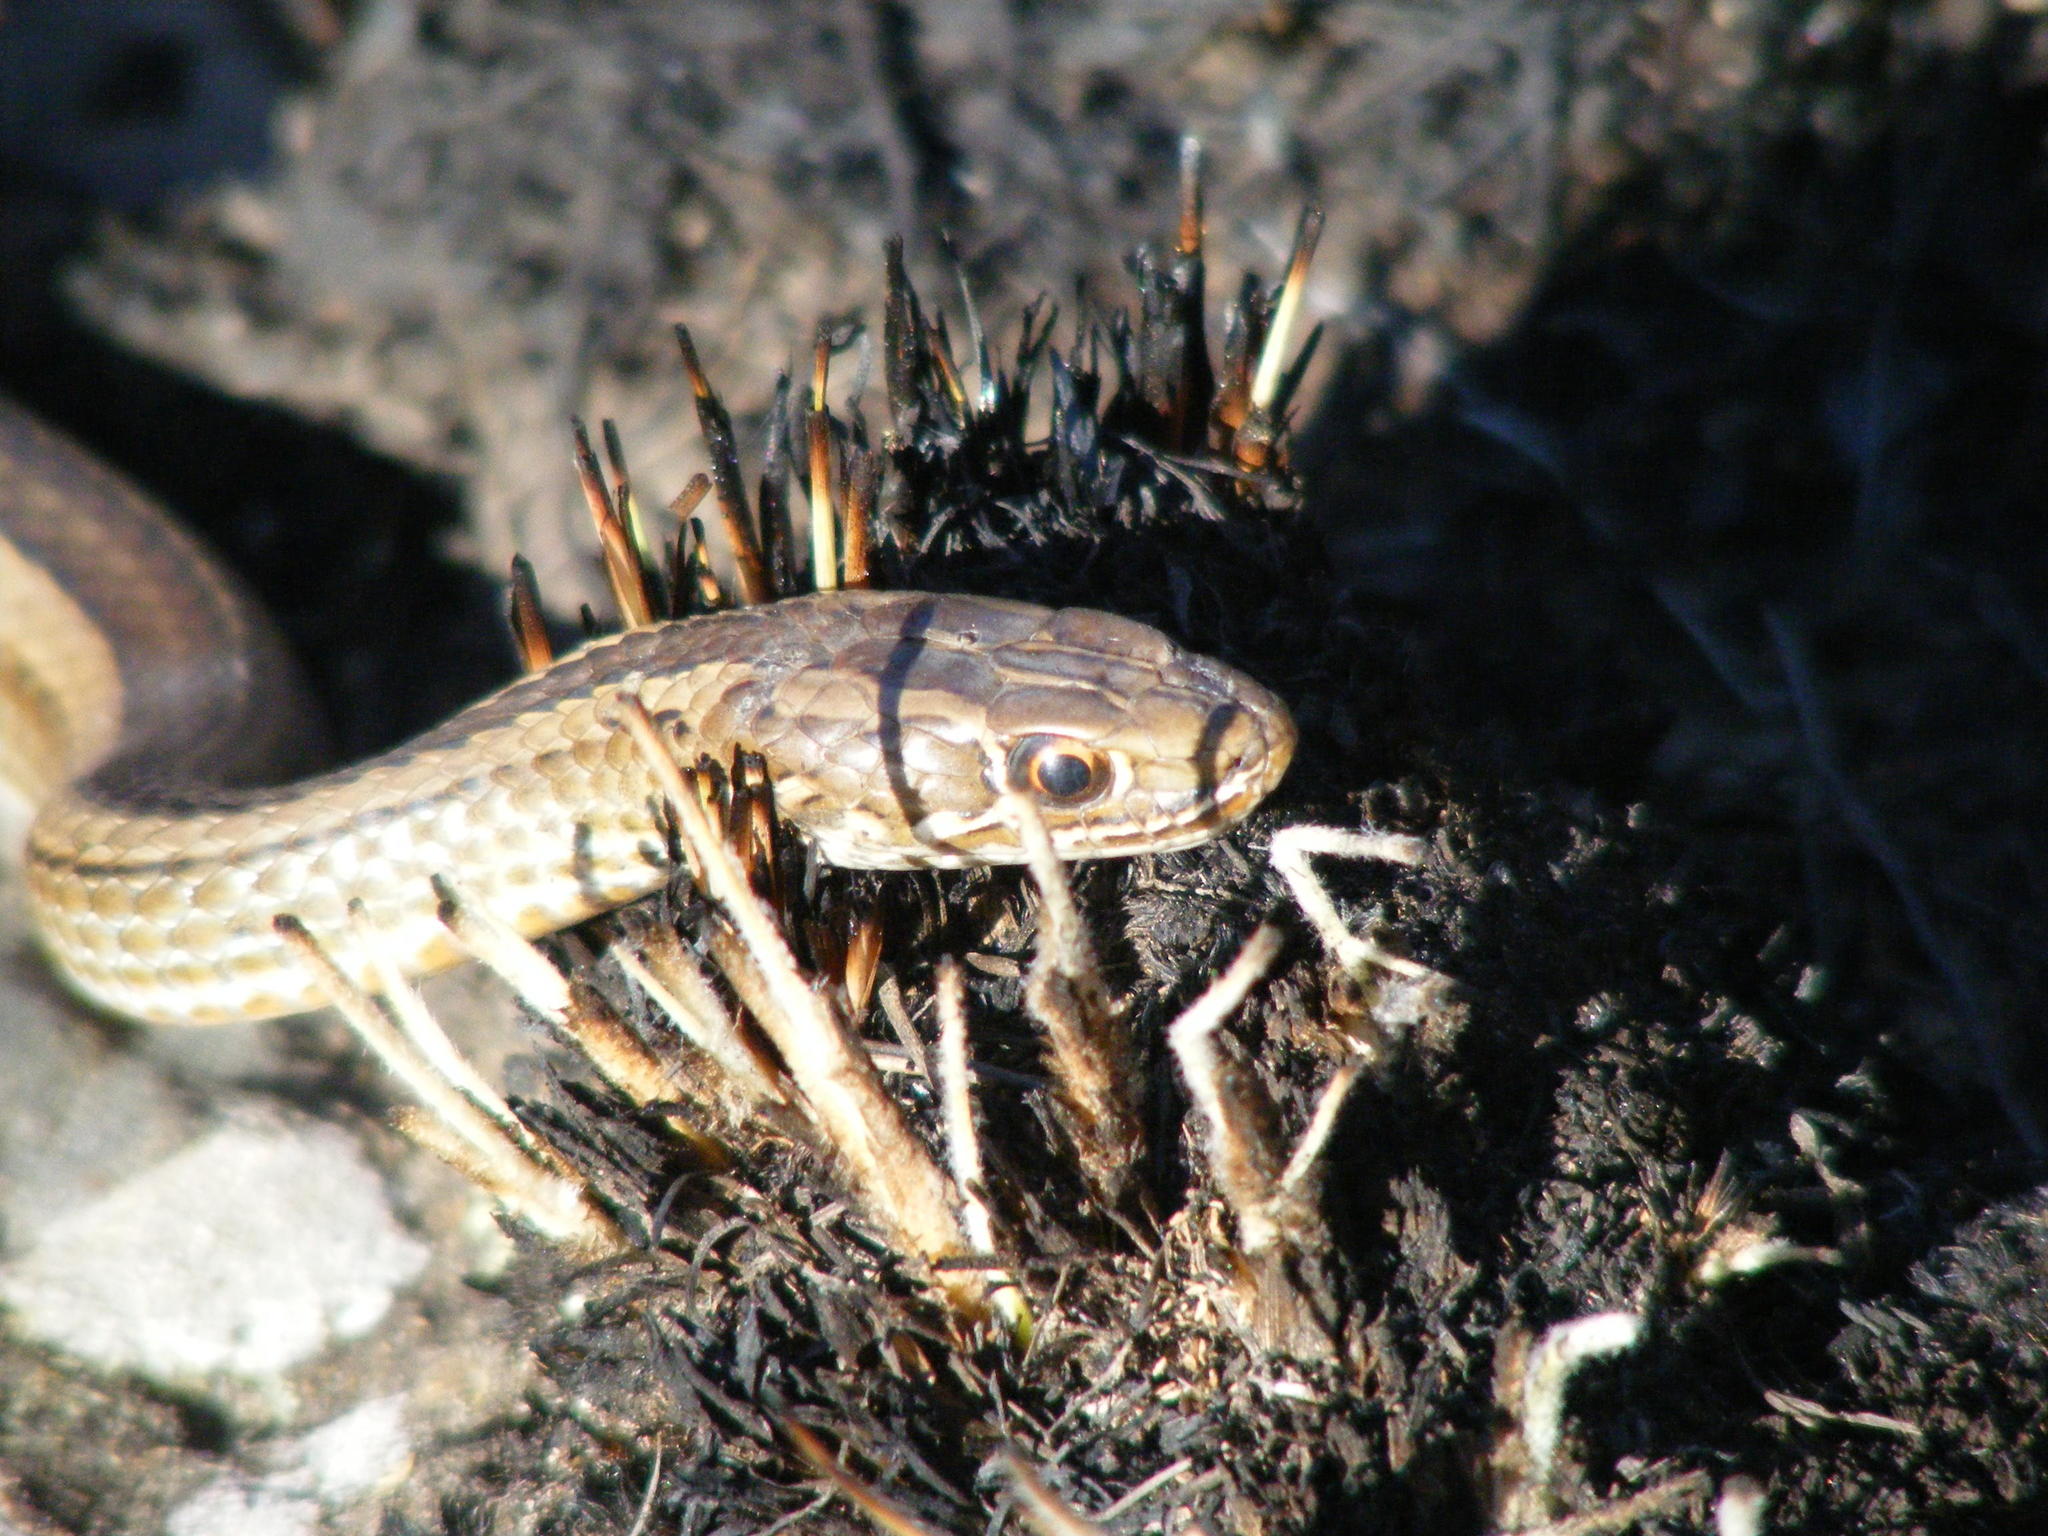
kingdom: Animalia
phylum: Chordata
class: Squamata
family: Psammophiidae
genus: Psammophis
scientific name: Psammophis crucifer
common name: Cross-marked grass snake
